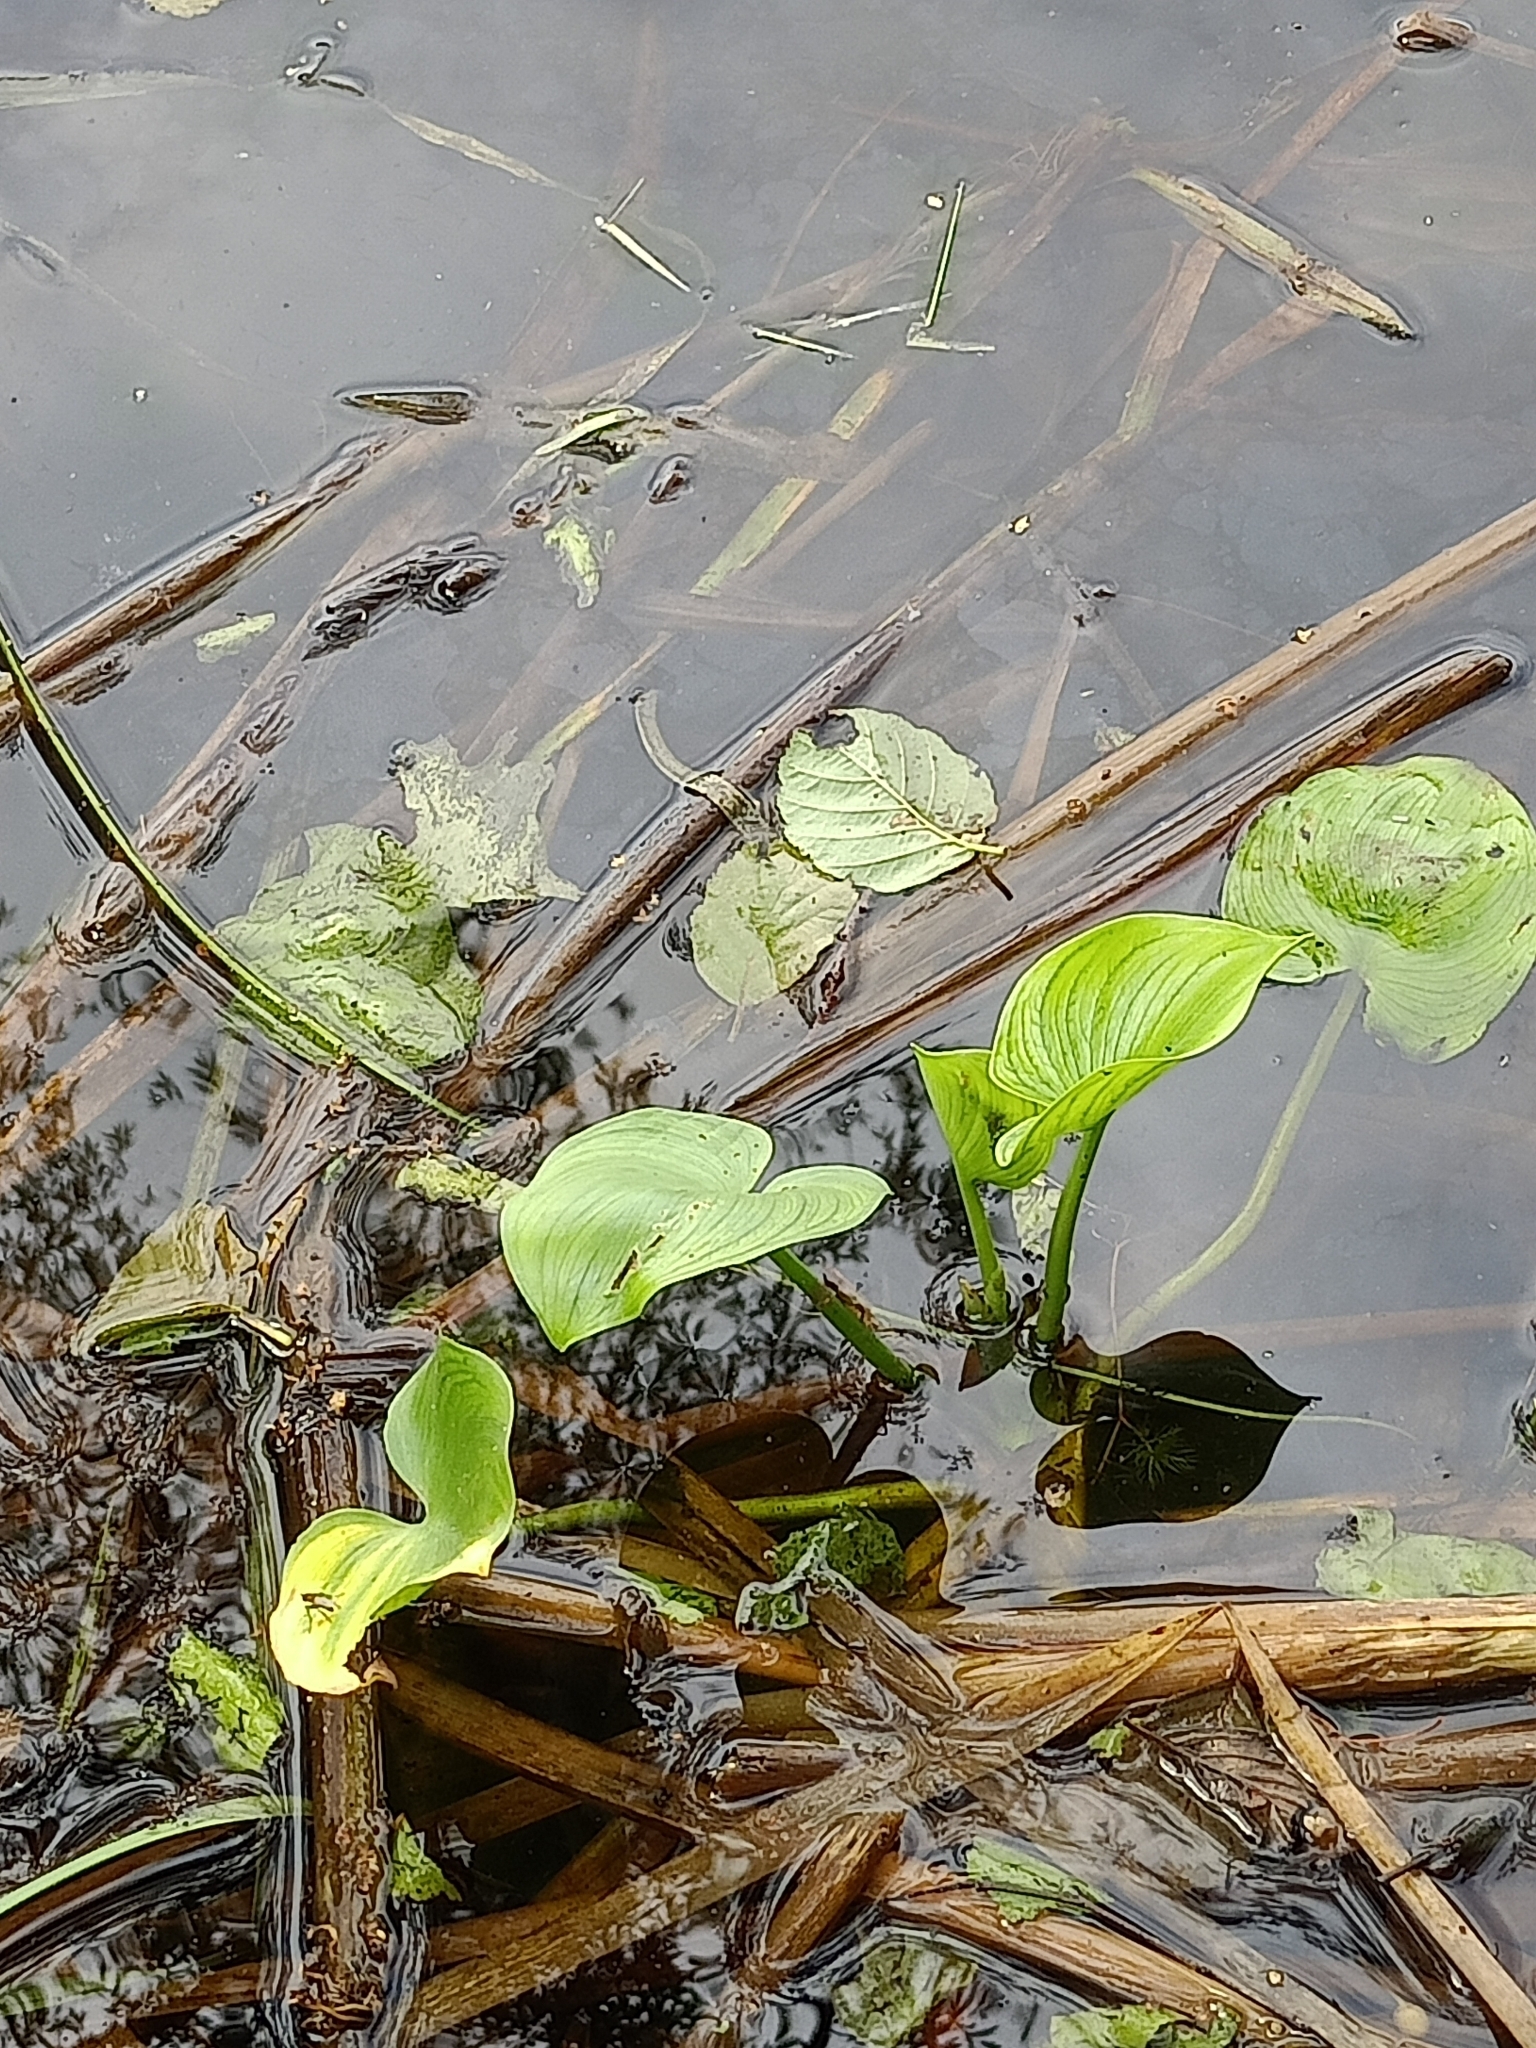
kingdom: Plantae
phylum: Tracheophyta
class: Liliopsida
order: Alismatales
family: Araceae
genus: Calla
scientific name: Calla palustris
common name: Bog arum
